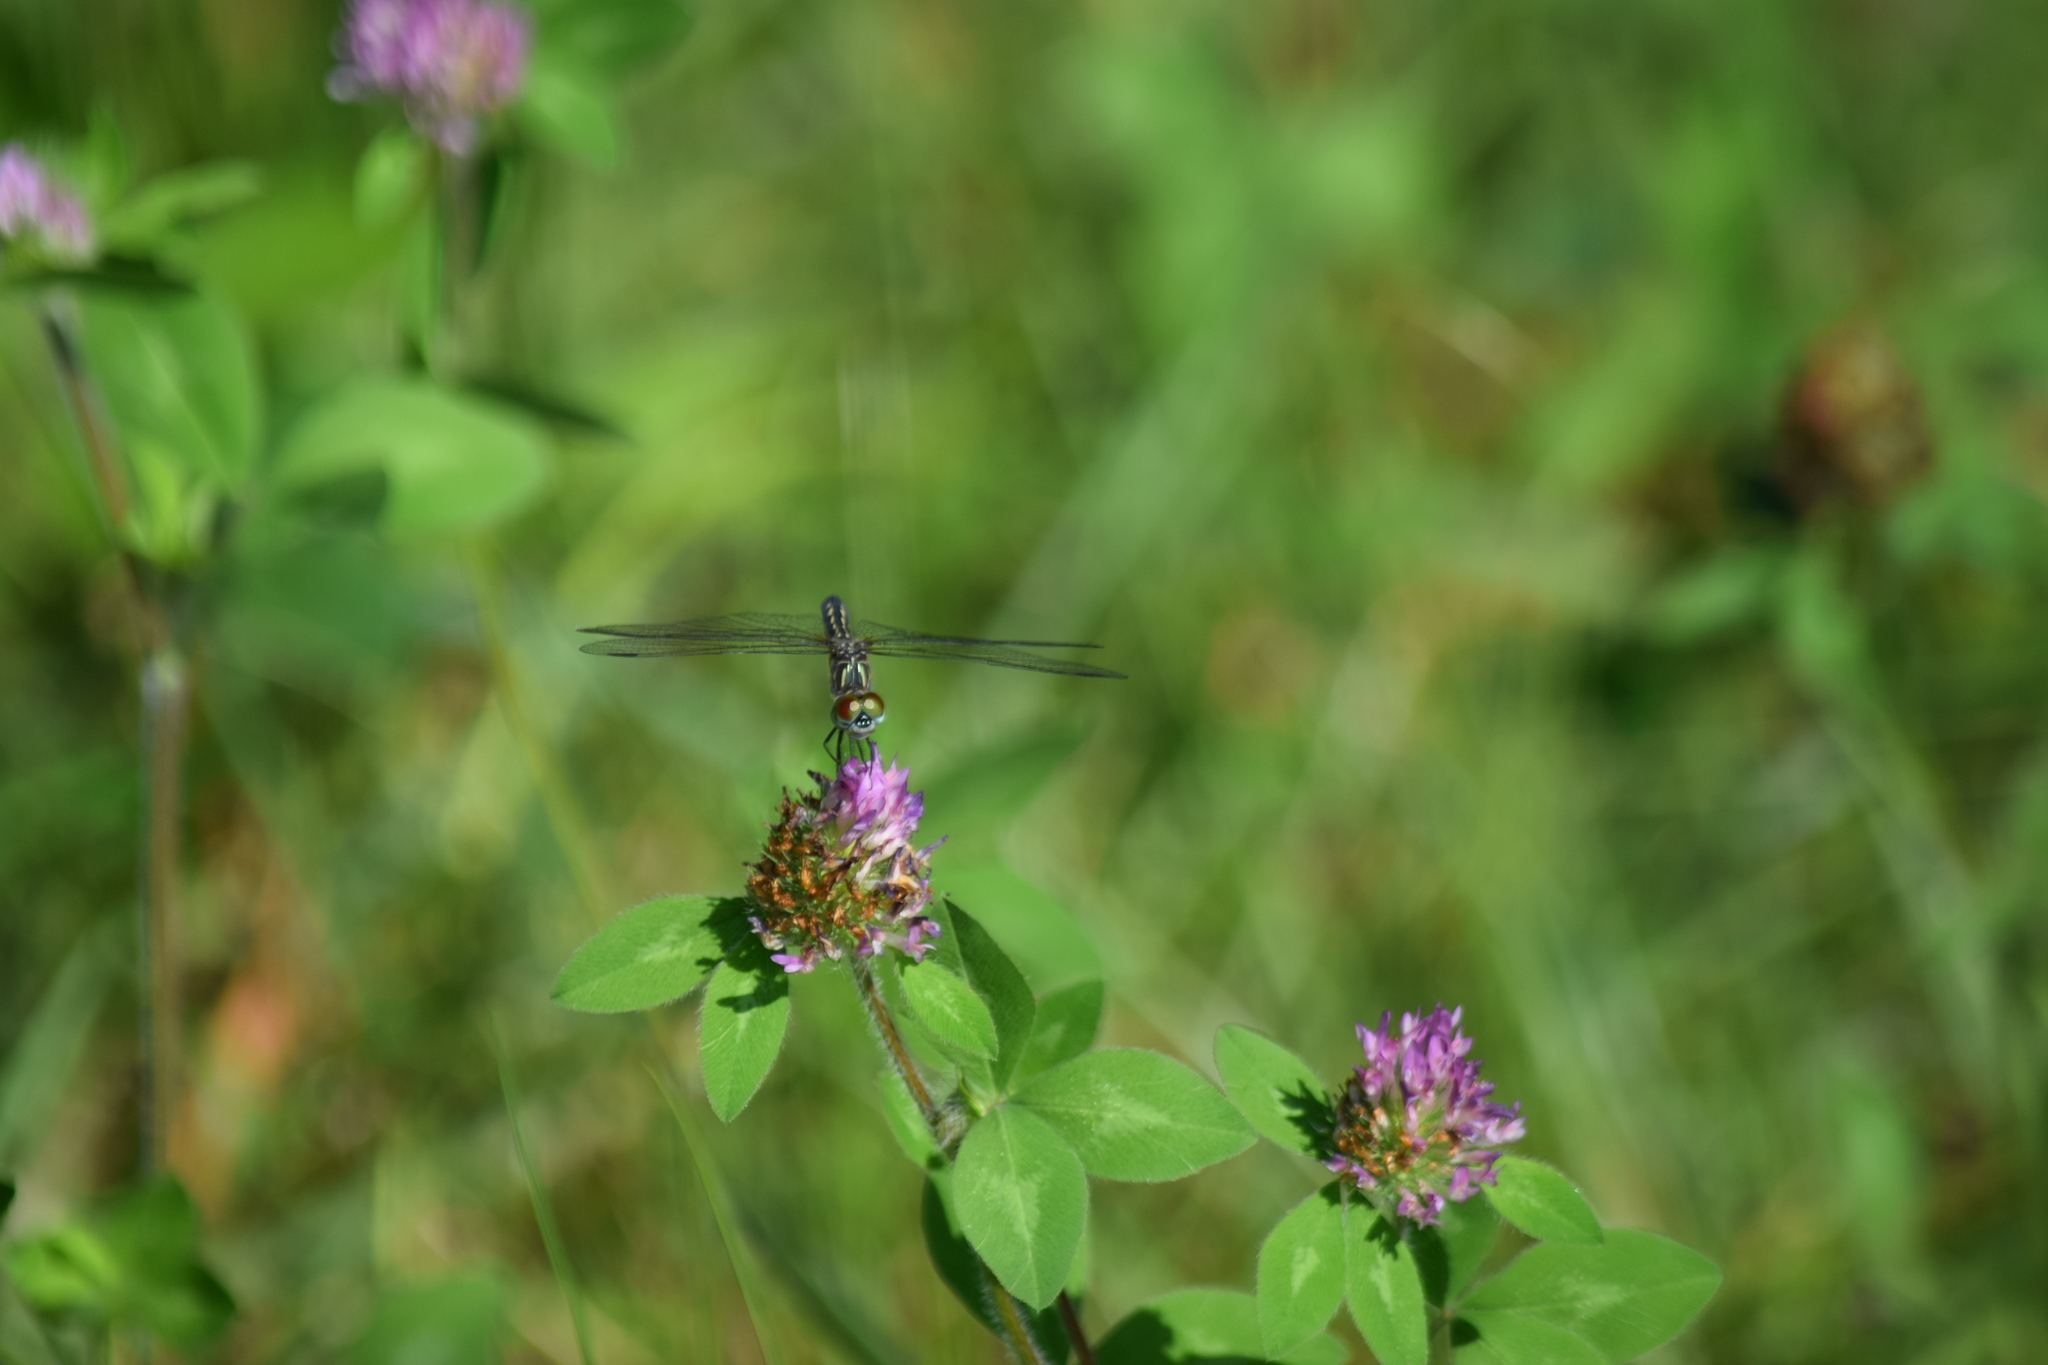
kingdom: Animalia
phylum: Arthropoda
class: Insecta
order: Odonata
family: Libellulidae
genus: Pachydiplax
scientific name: Pachydiplax longipennis
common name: Blue dasher
